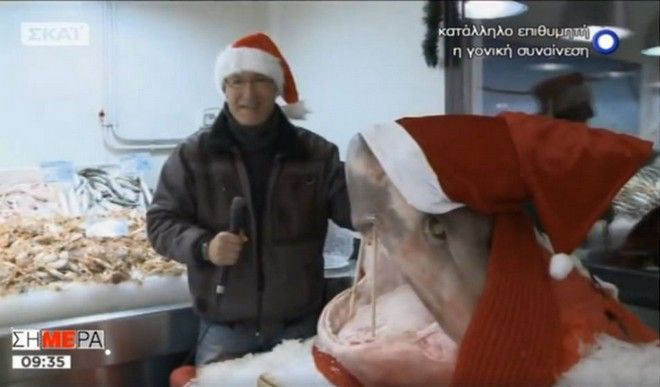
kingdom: Animalia
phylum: Chordata
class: Elasmobranchii
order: Hexanchiformes
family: Hexanchidae
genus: Hexanchus
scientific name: Hexanchus griseus
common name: Bluntnose sixgill shark
